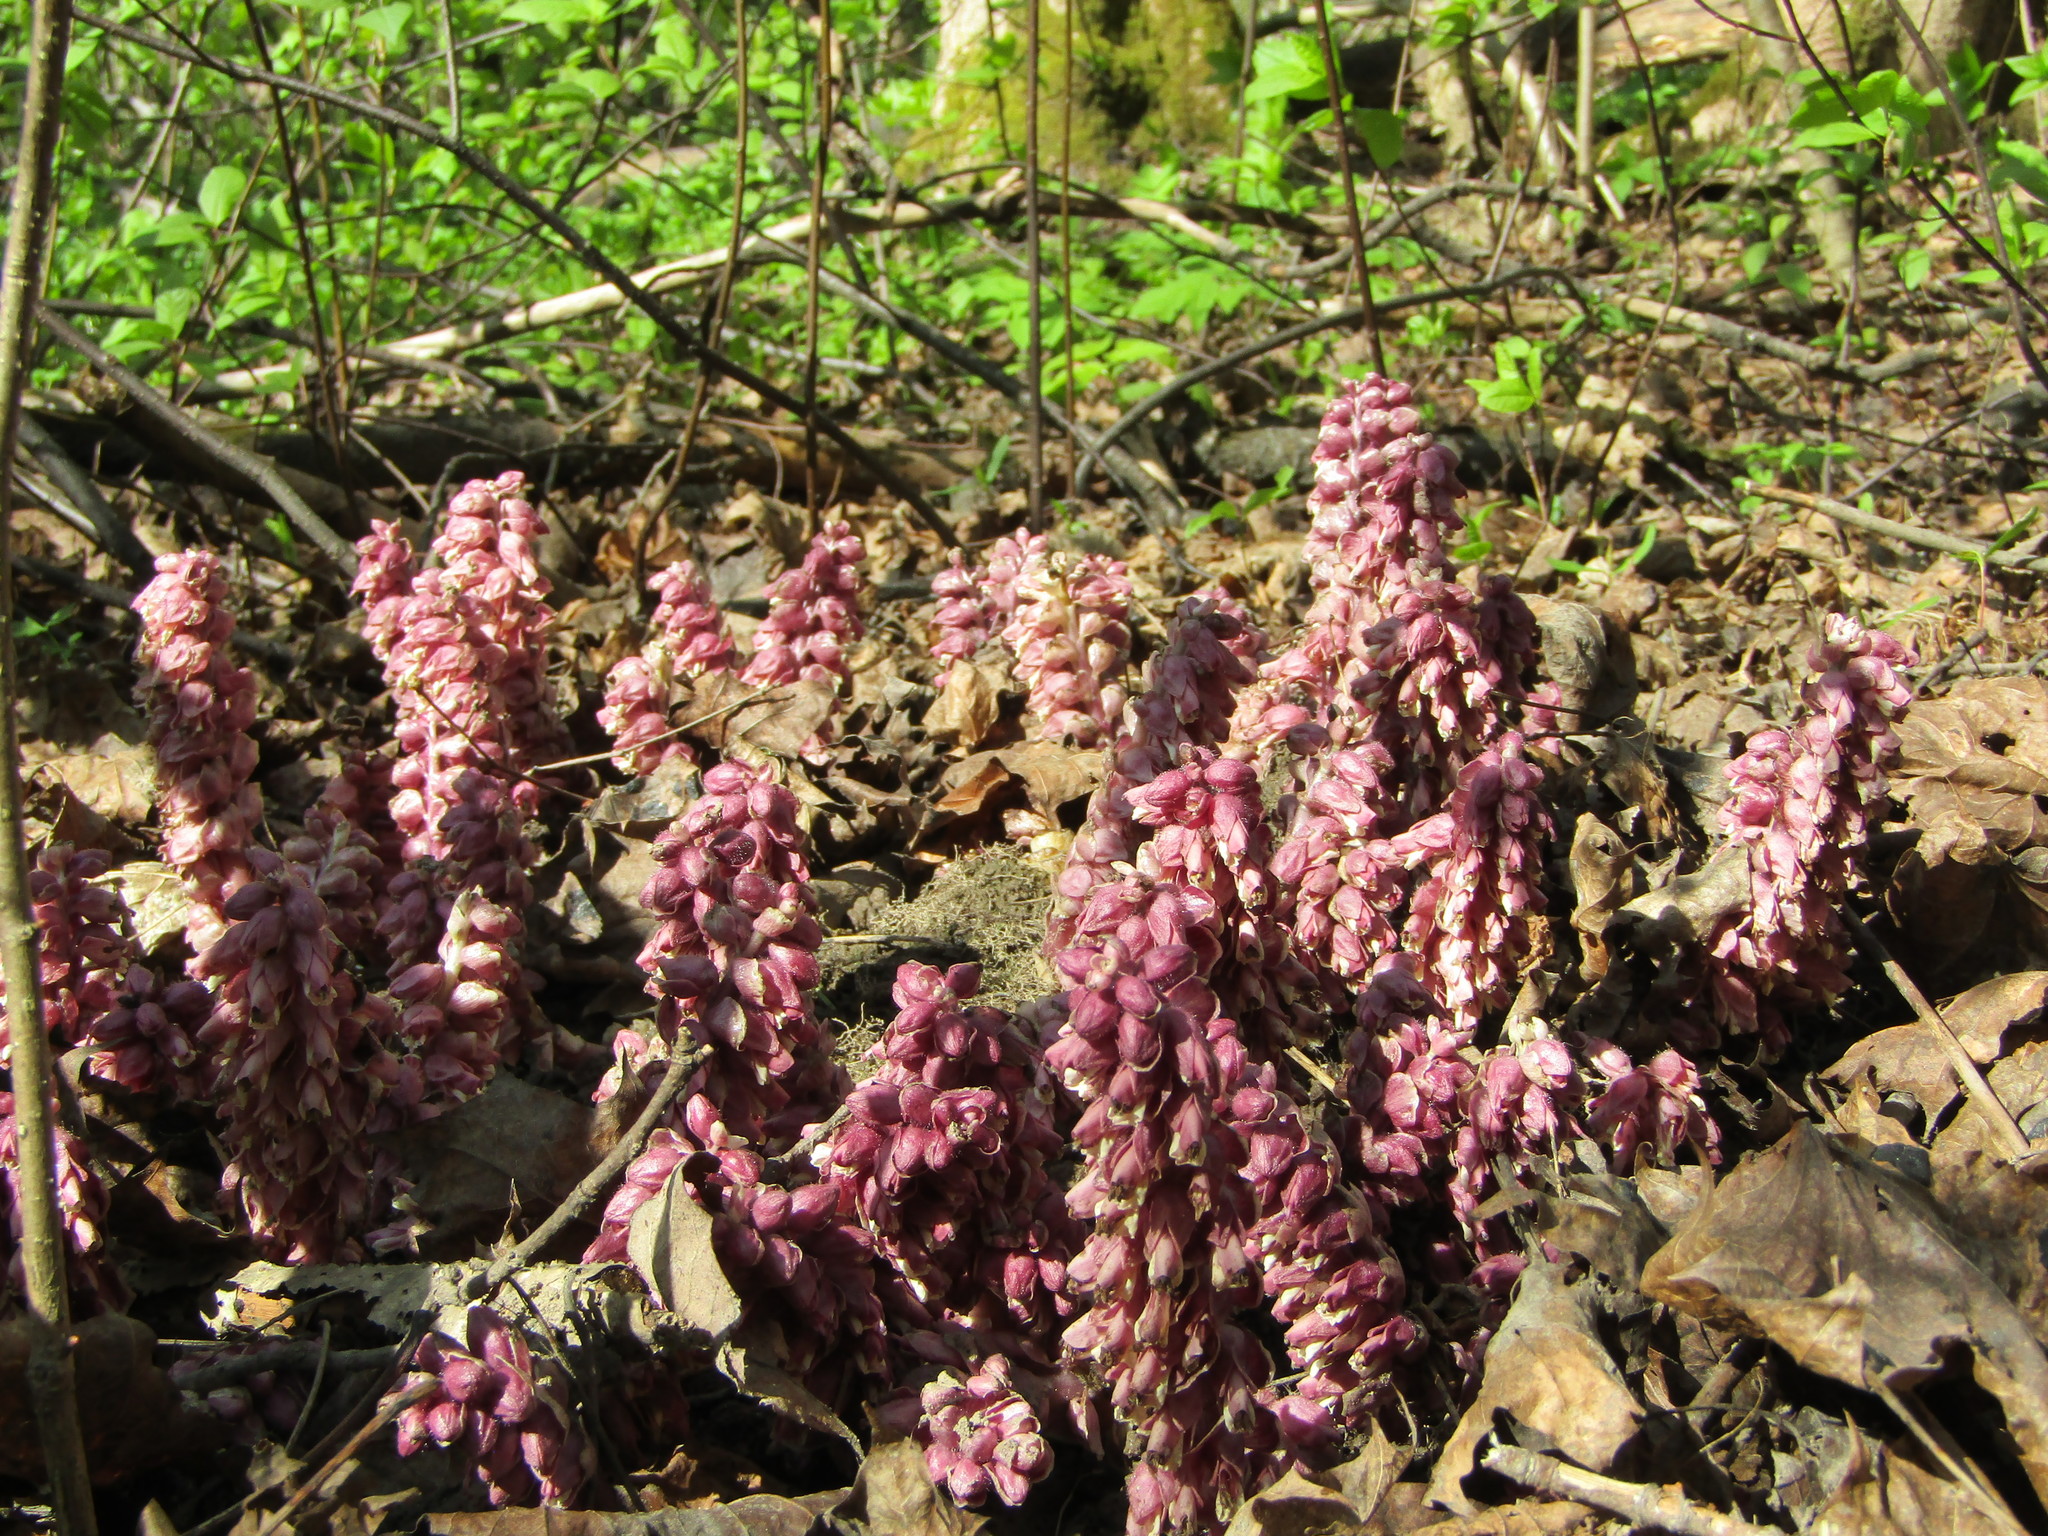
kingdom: Plantae
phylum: Tracheophyta
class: Magnoliopsida
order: Lamiales
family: Orobanchaceae
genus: Lathraea
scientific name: Lathraea squamaria
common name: Toothwort
